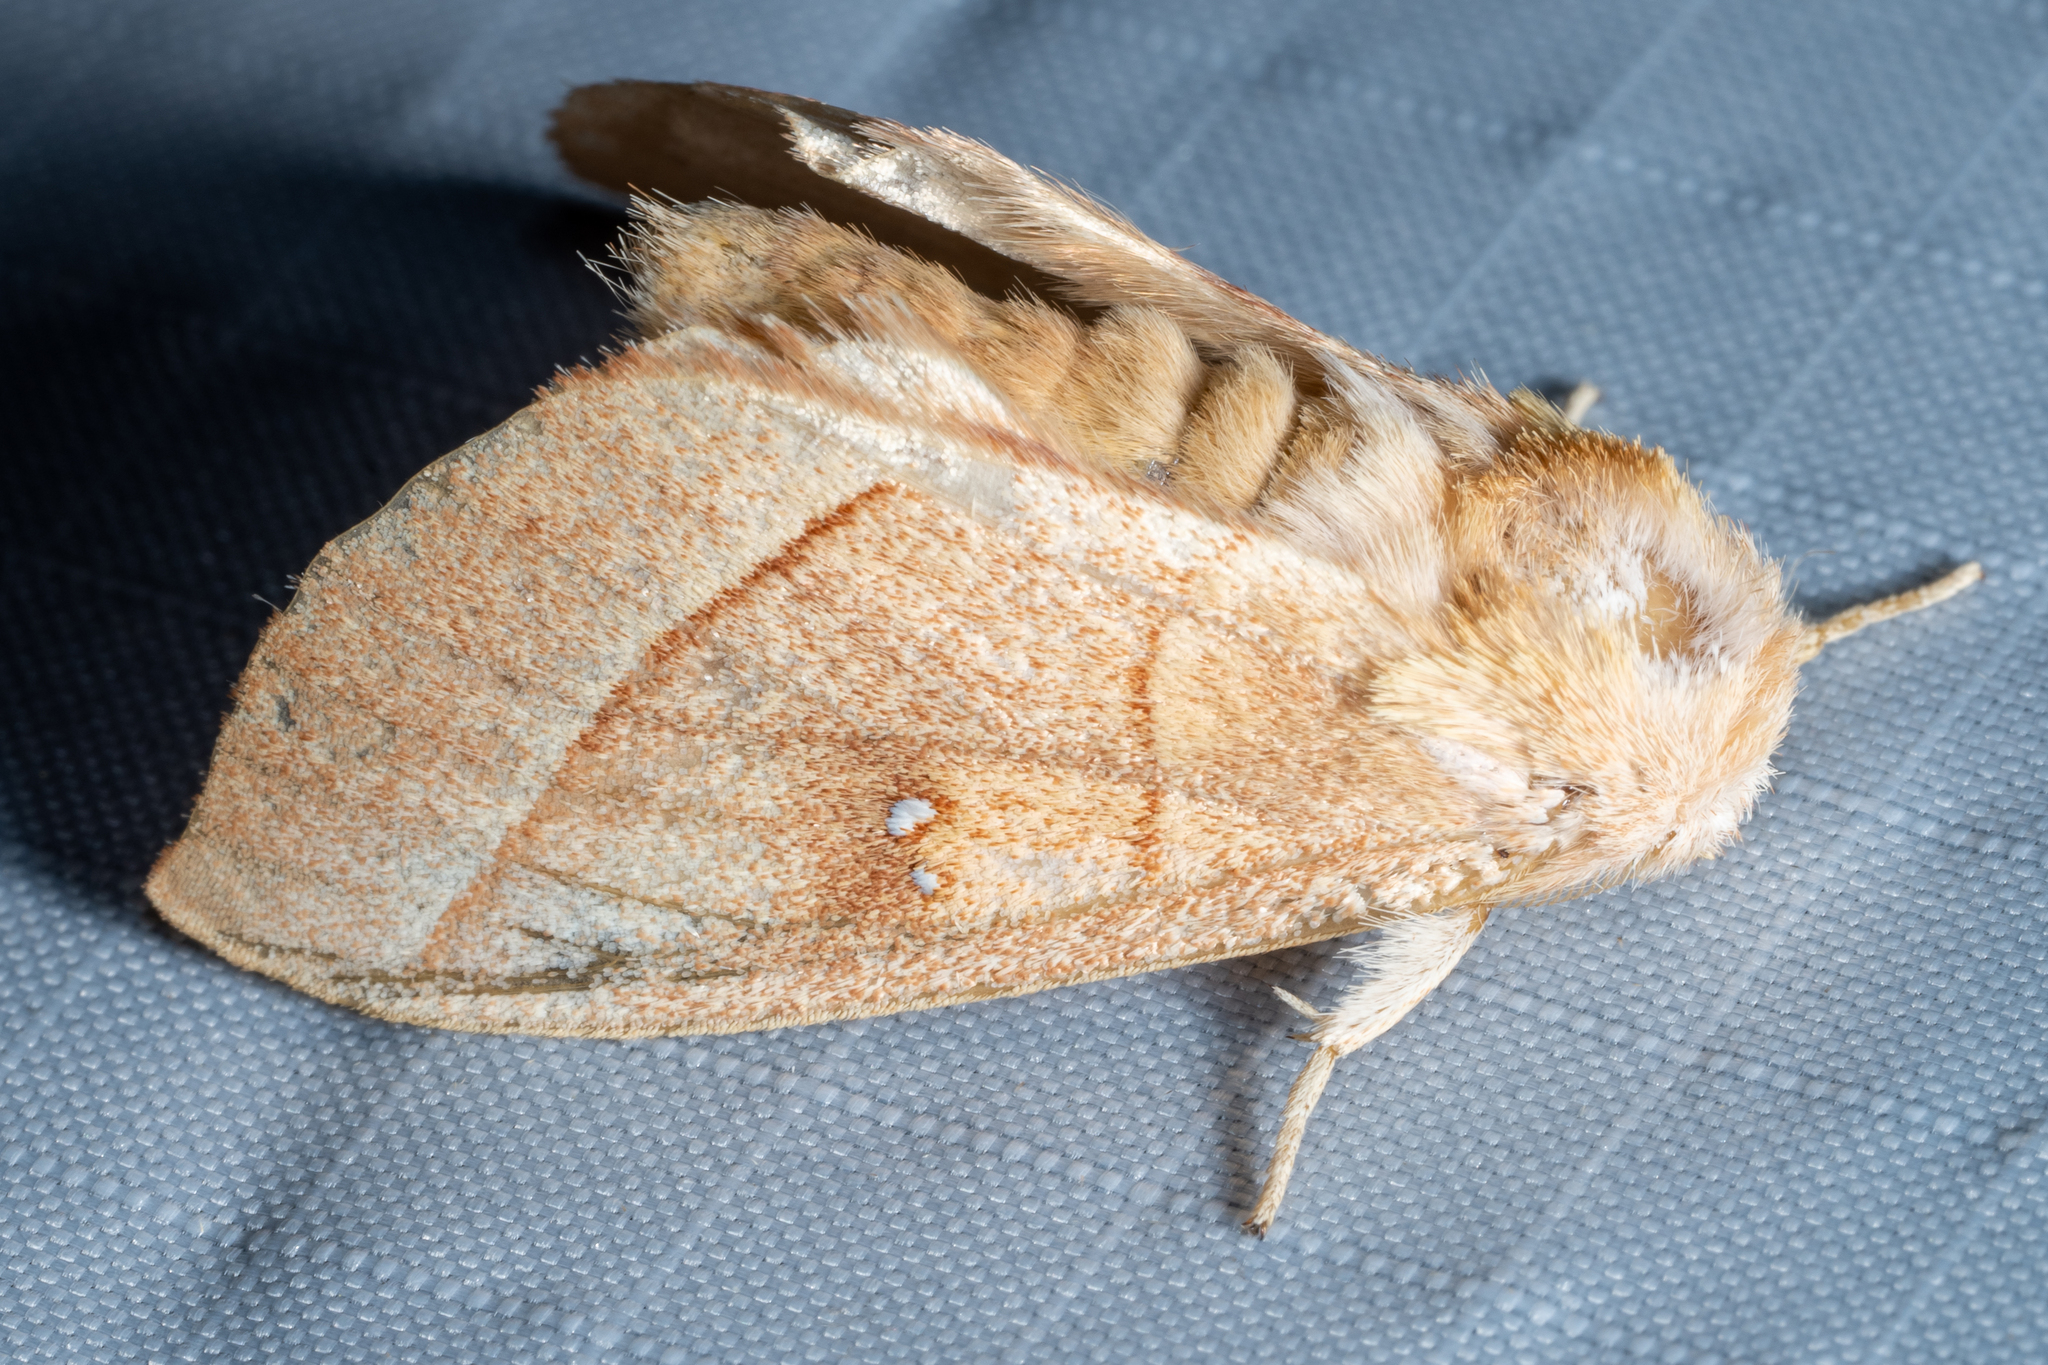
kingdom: Animalia
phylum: Arthropoda
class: Insecta
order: Lepidoptera
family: Notodontidae
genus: Nadata
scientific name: Nadata gibbosa
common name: White-dotted prominent
